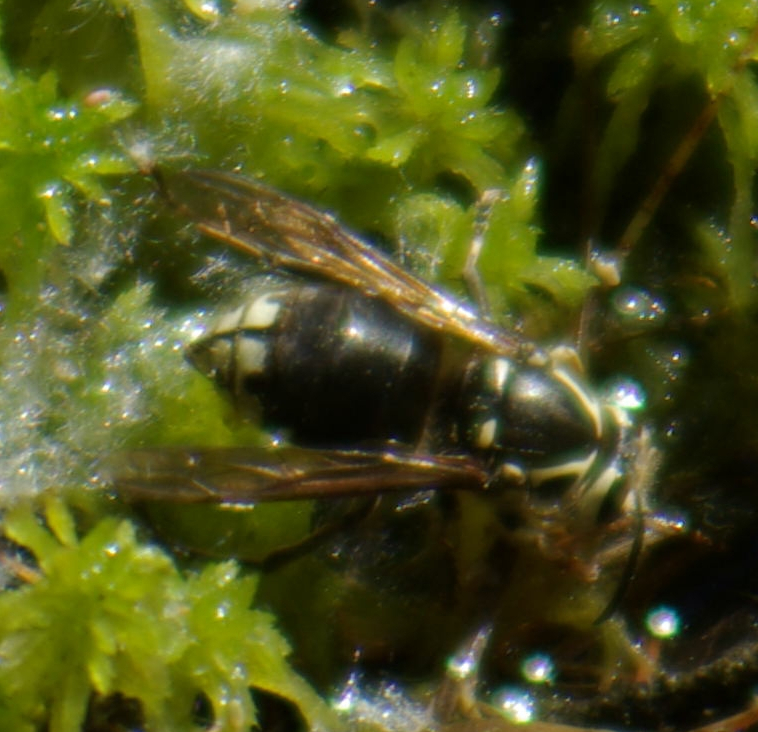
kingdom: Animalia
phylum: Arthropoda
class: Insecta
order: Hymenoptera
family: Vespidae
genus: Dolichovespula
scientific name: Dolichovespula maculata
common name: Bald-faced hornet
